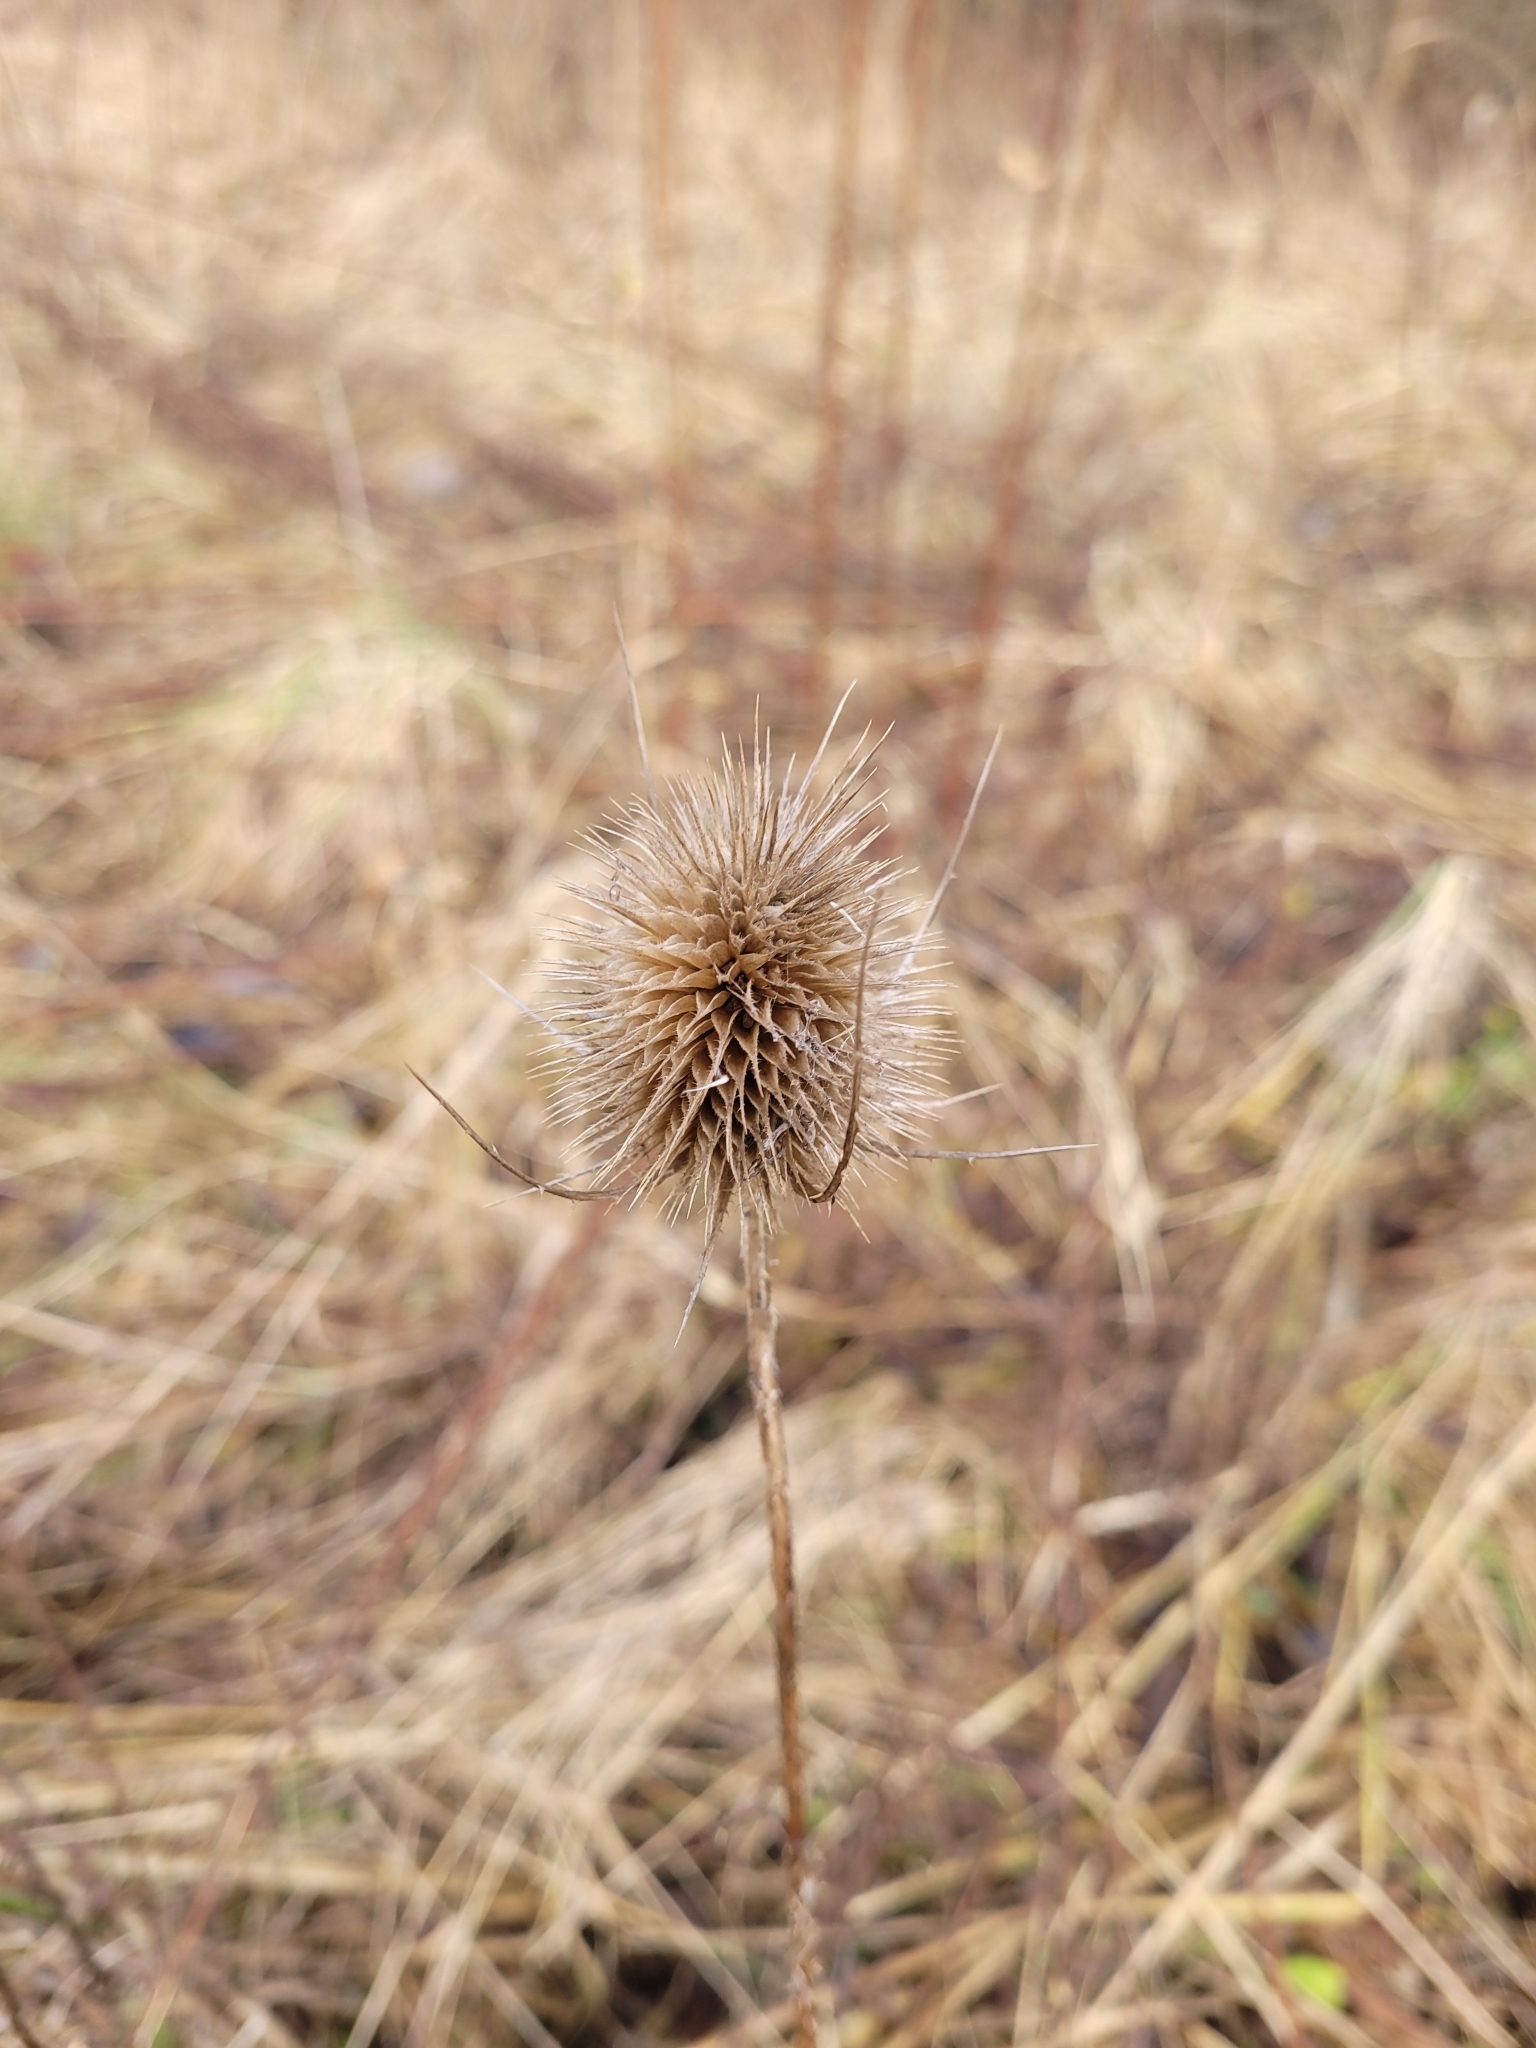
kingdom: Plantae
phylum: Tracheophyta
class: Magnoliopsida
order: Dipsacales
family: Caprifoliaceae
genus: Dipsacus
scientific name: Dipsacus fullonum
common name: Teasel
